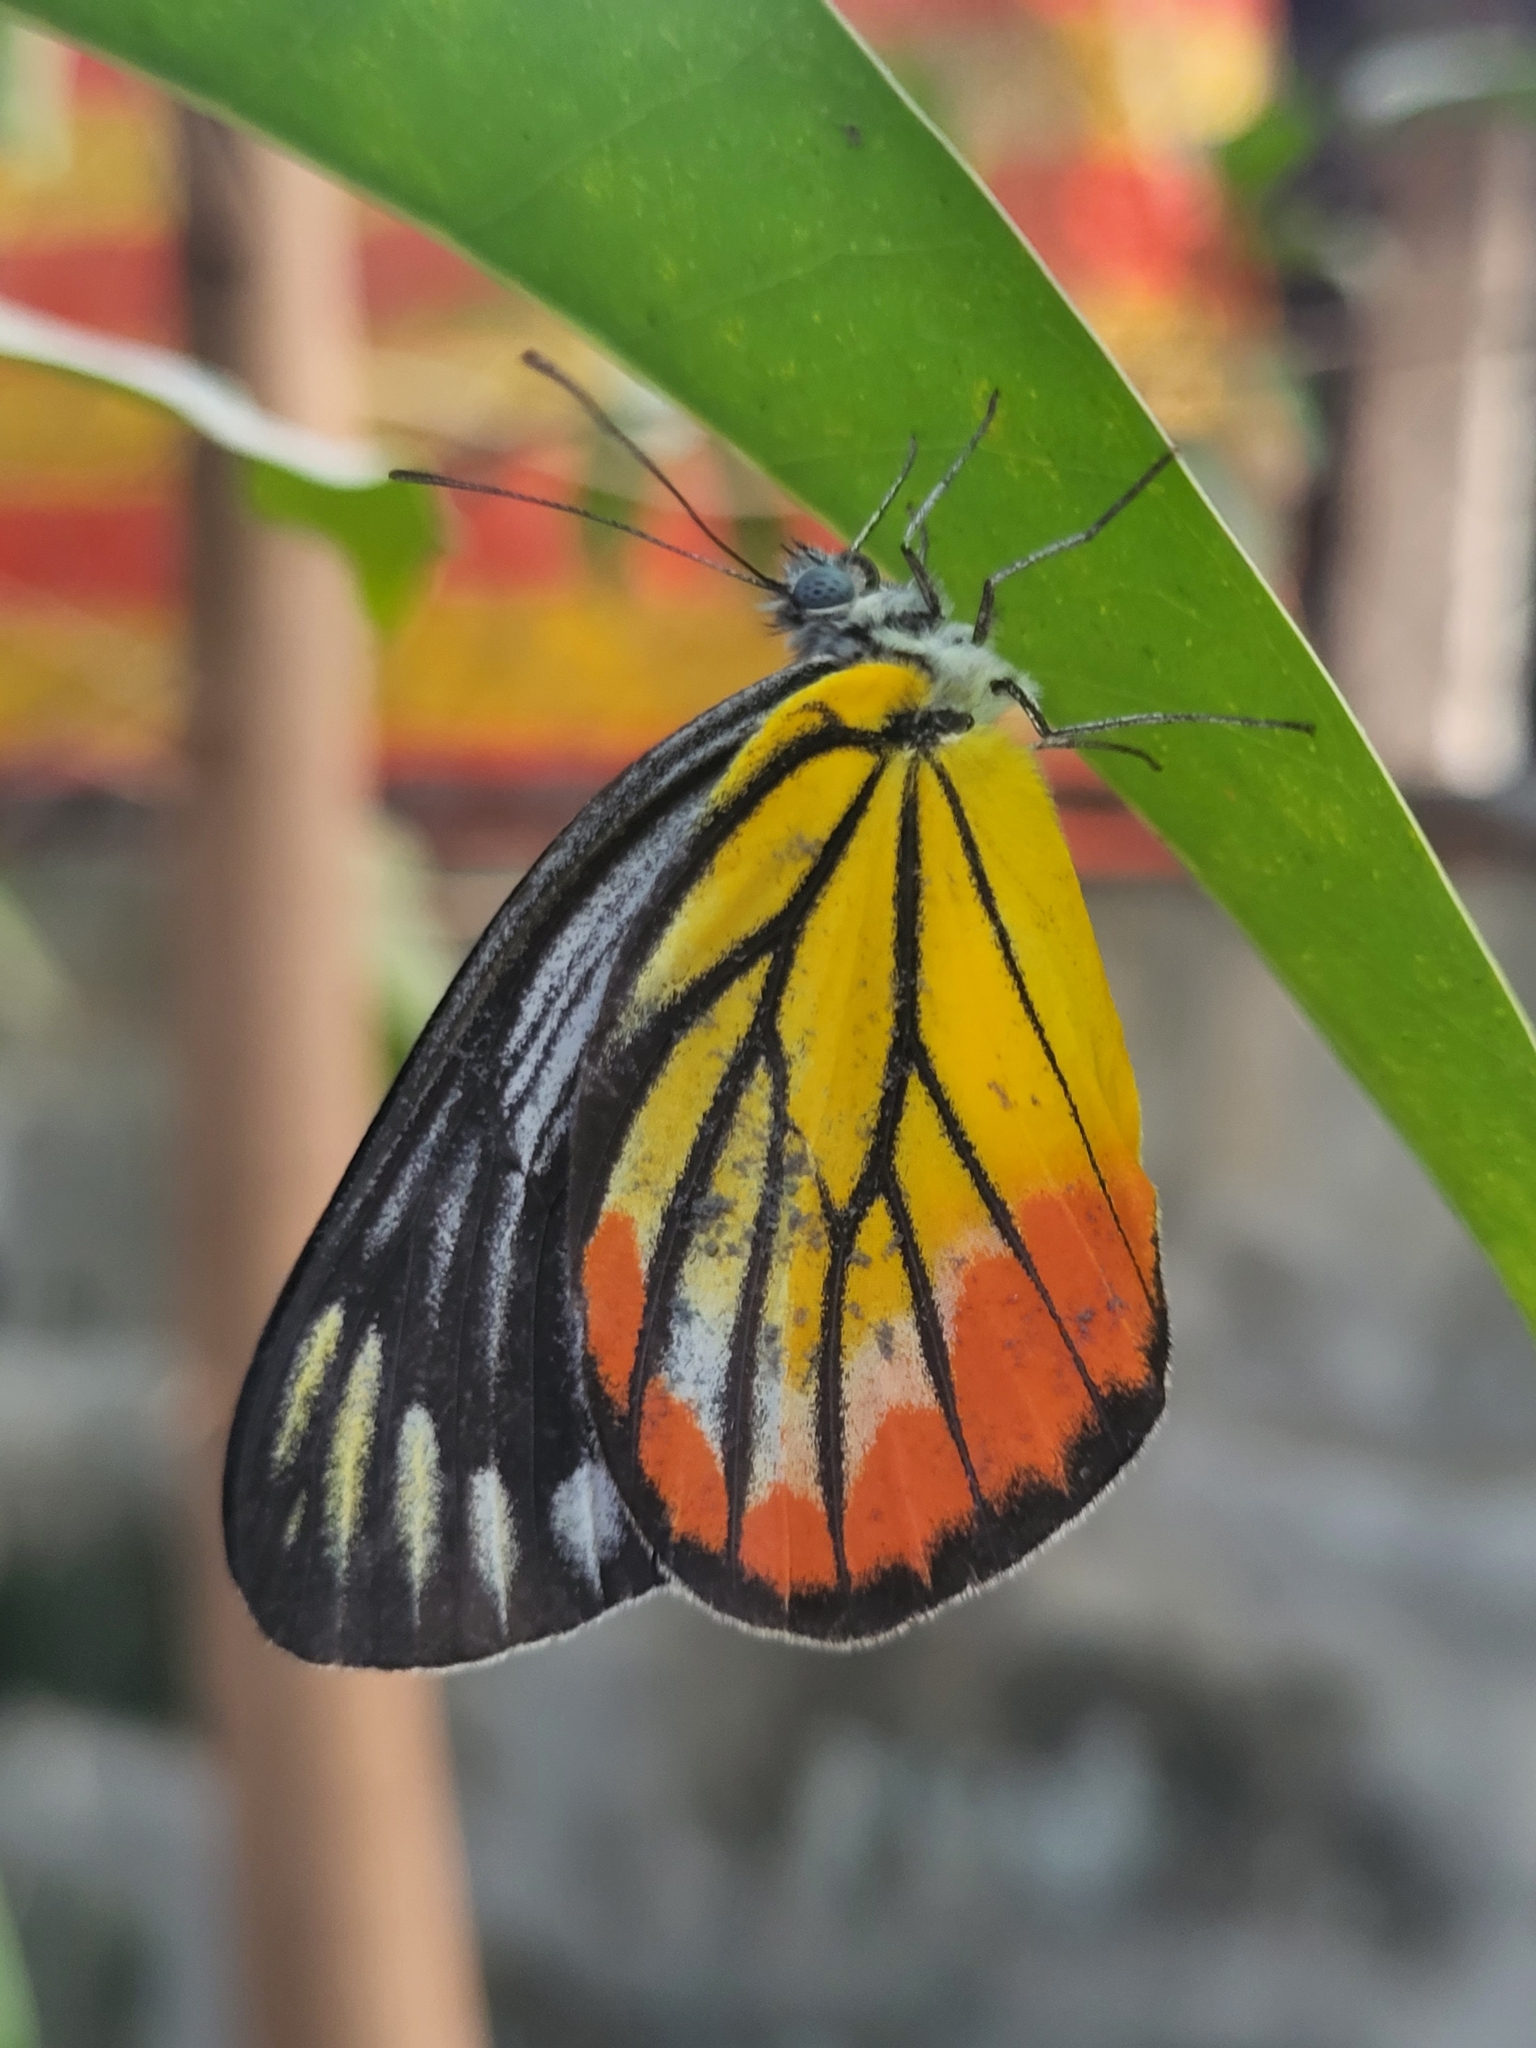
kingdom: Animalia
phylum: Arthropoda
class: Insecta
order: Lepidoptera
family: Pieridae
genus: Delias
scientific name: Delias hyparete
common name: Painted jezebel
